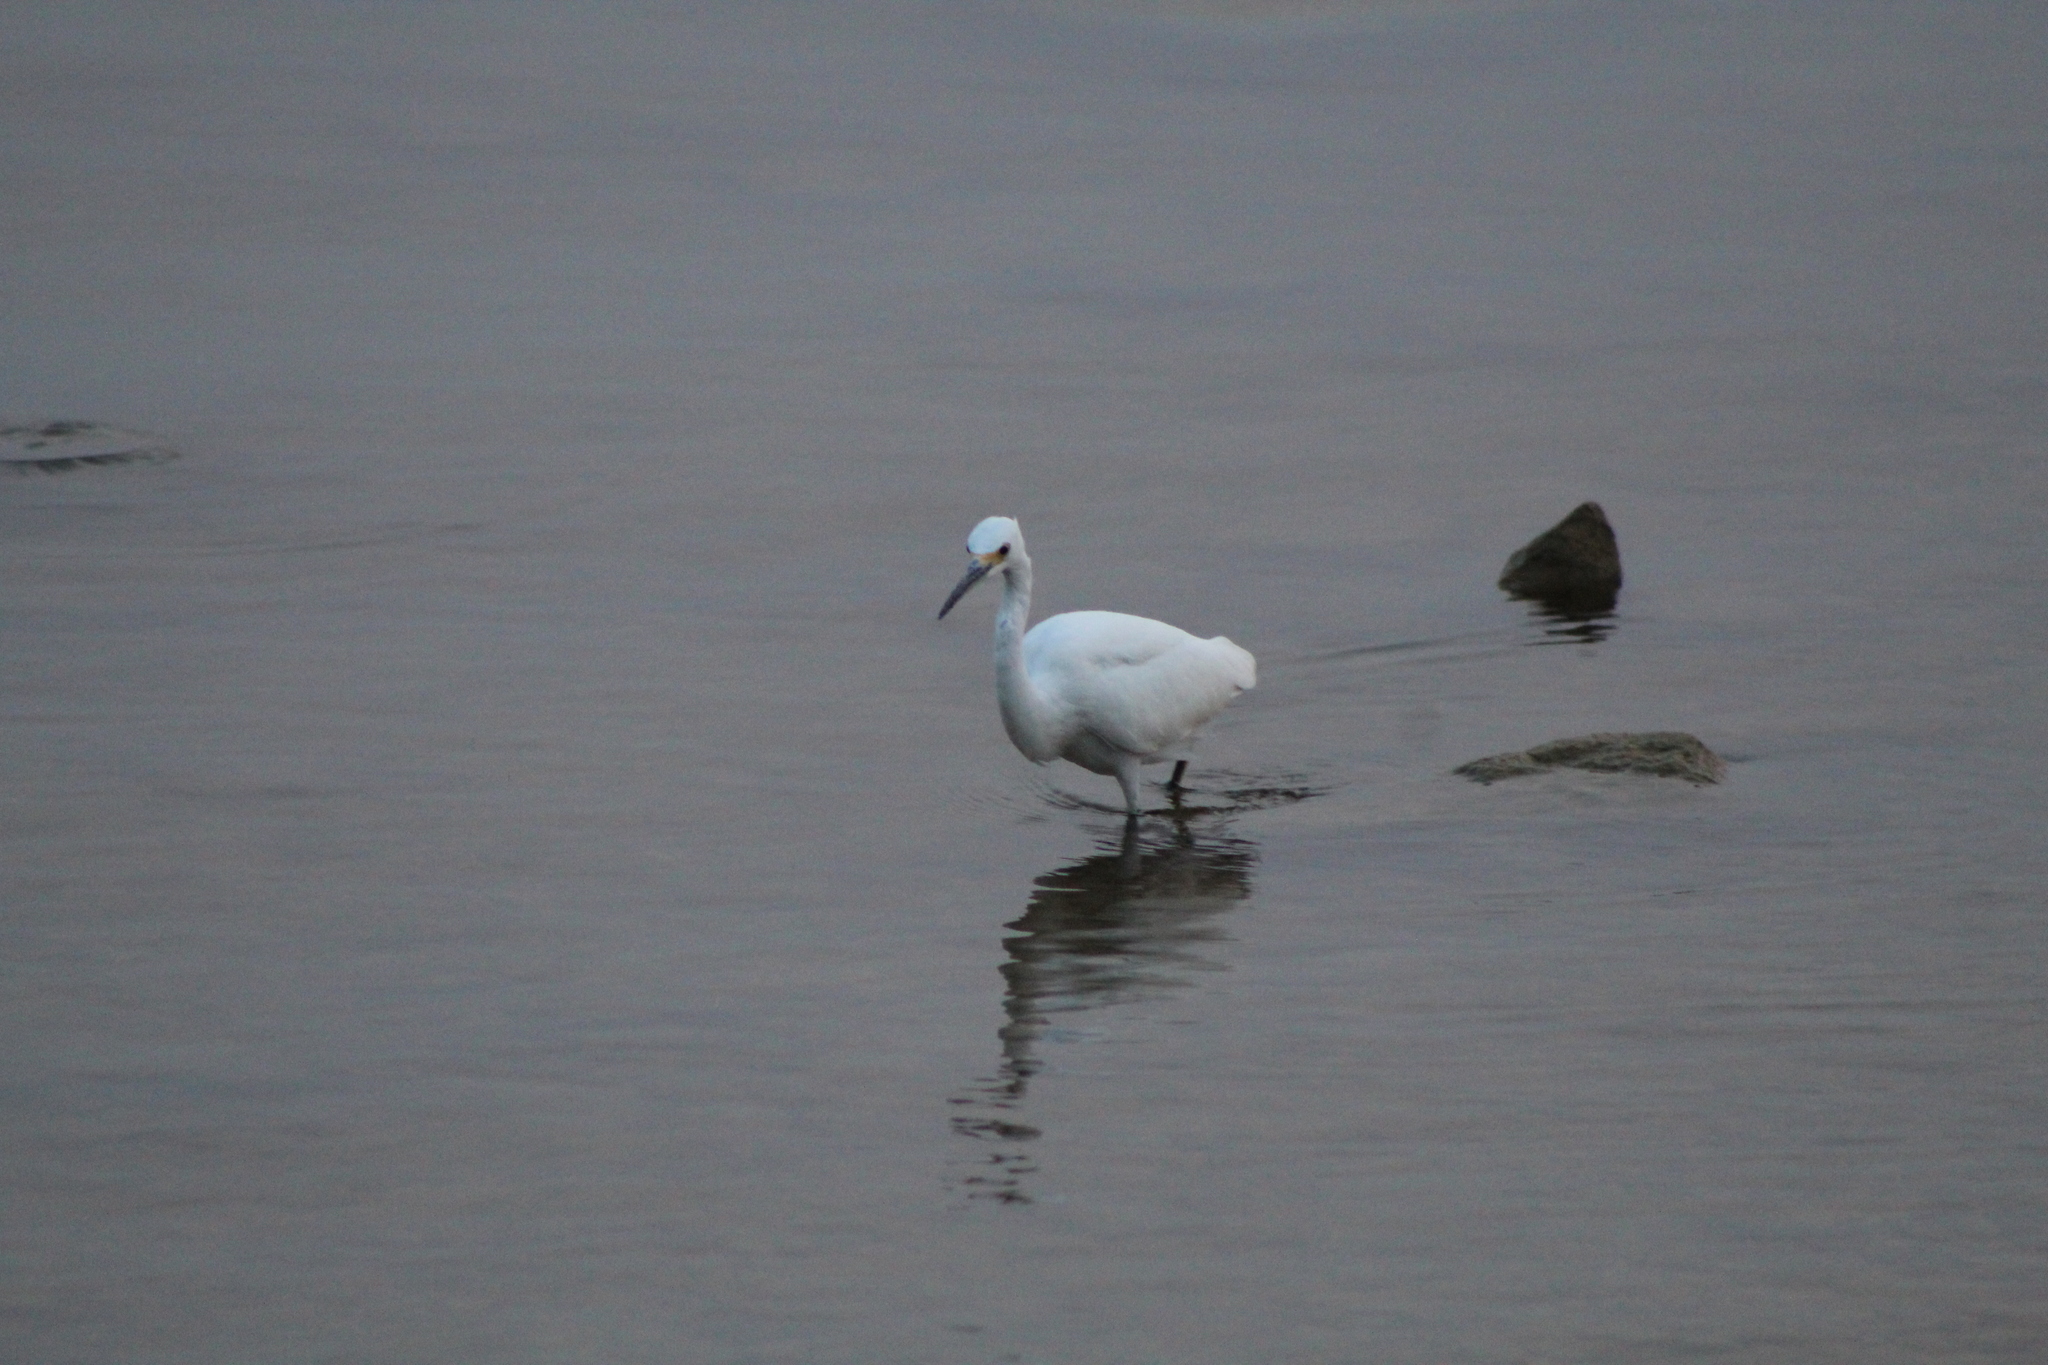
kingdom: Animalia
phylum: Chordata
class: Aves
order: Pelecaniformes
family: Ardeidae
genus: Egretta
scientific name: Egretta thula
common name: Snowy egret
